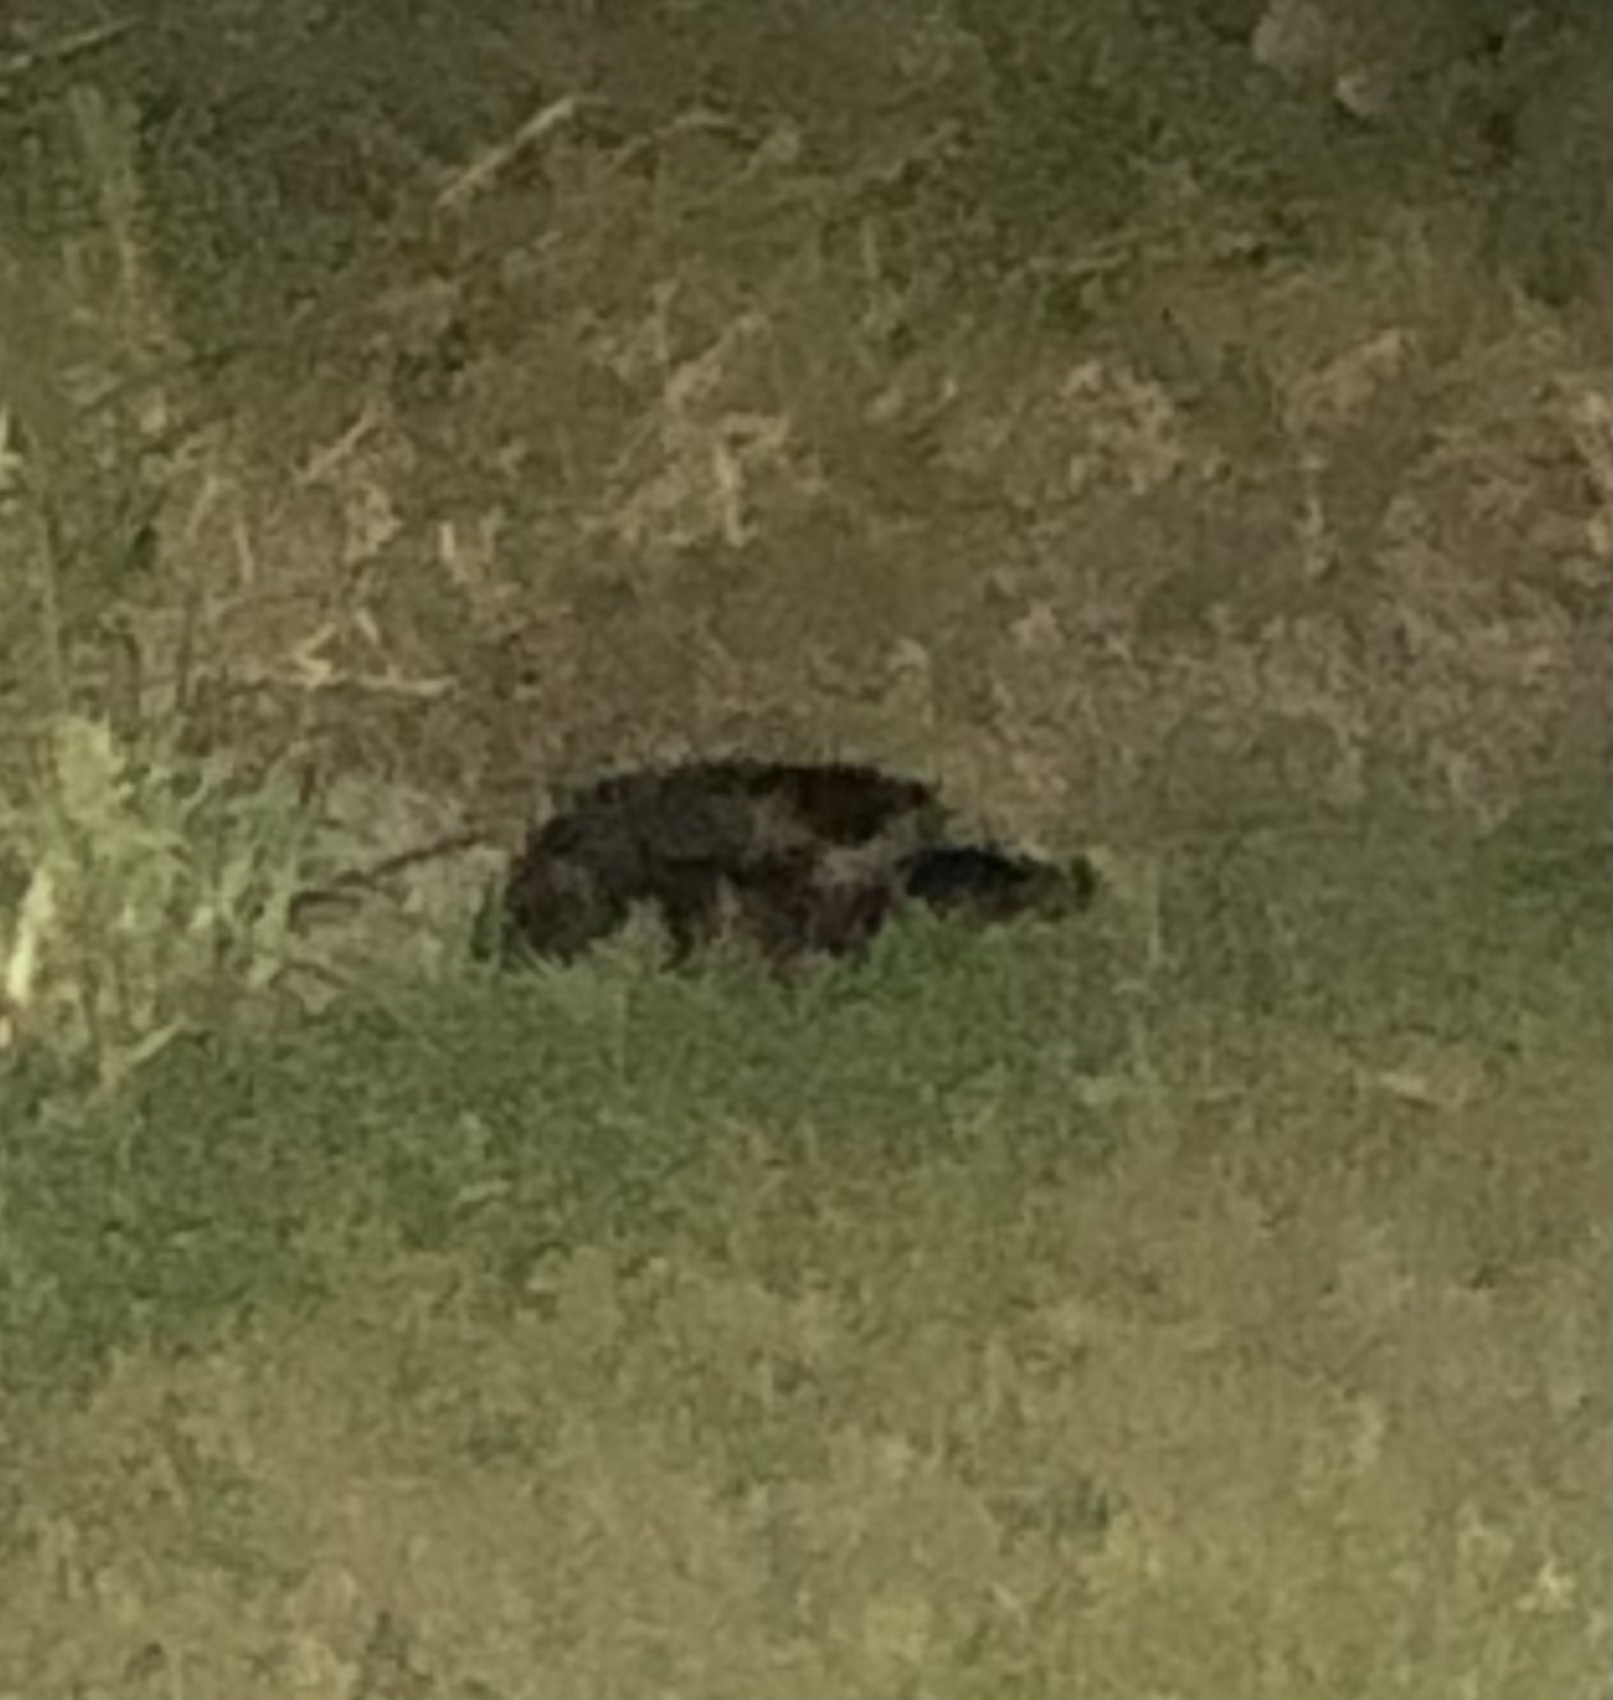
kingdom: Animalia
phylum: Chordata
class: Mammalia
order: Carnivora
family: Mephitidae
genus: Mephitis
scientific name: Mephitis mephitis
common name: Striped skunk
